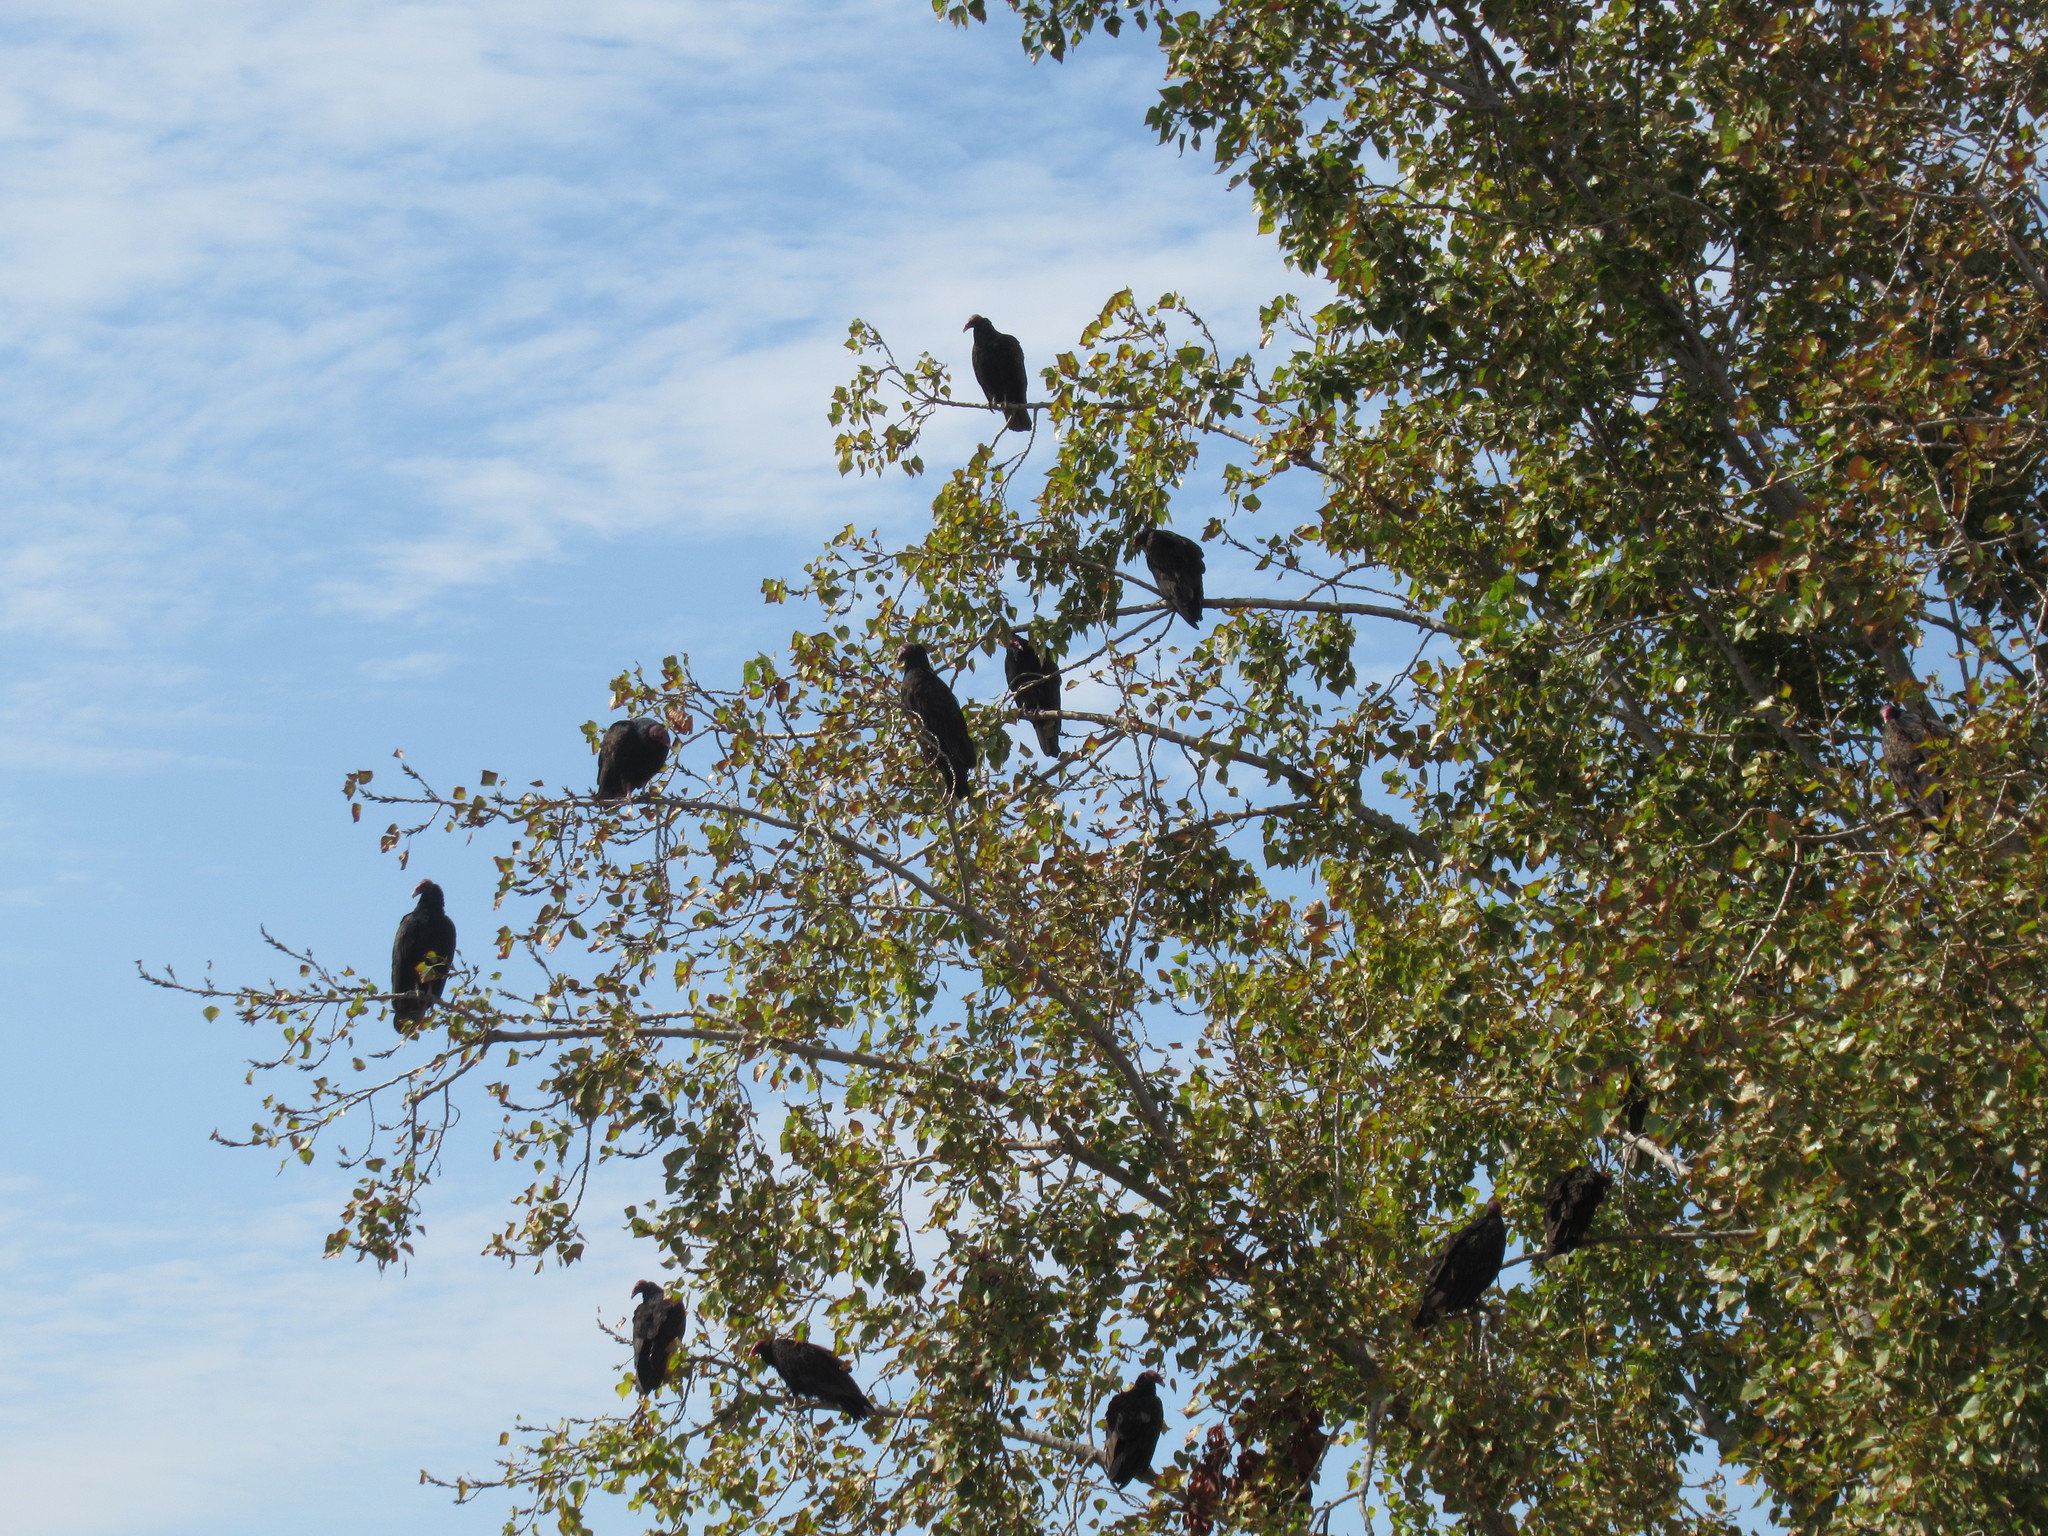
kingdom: Animalia
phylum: Chordata
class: Aves
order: Accipitriformes
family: Cathartidae
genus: Cathartes
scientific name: Cathartes aura
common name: Turkey vulture
